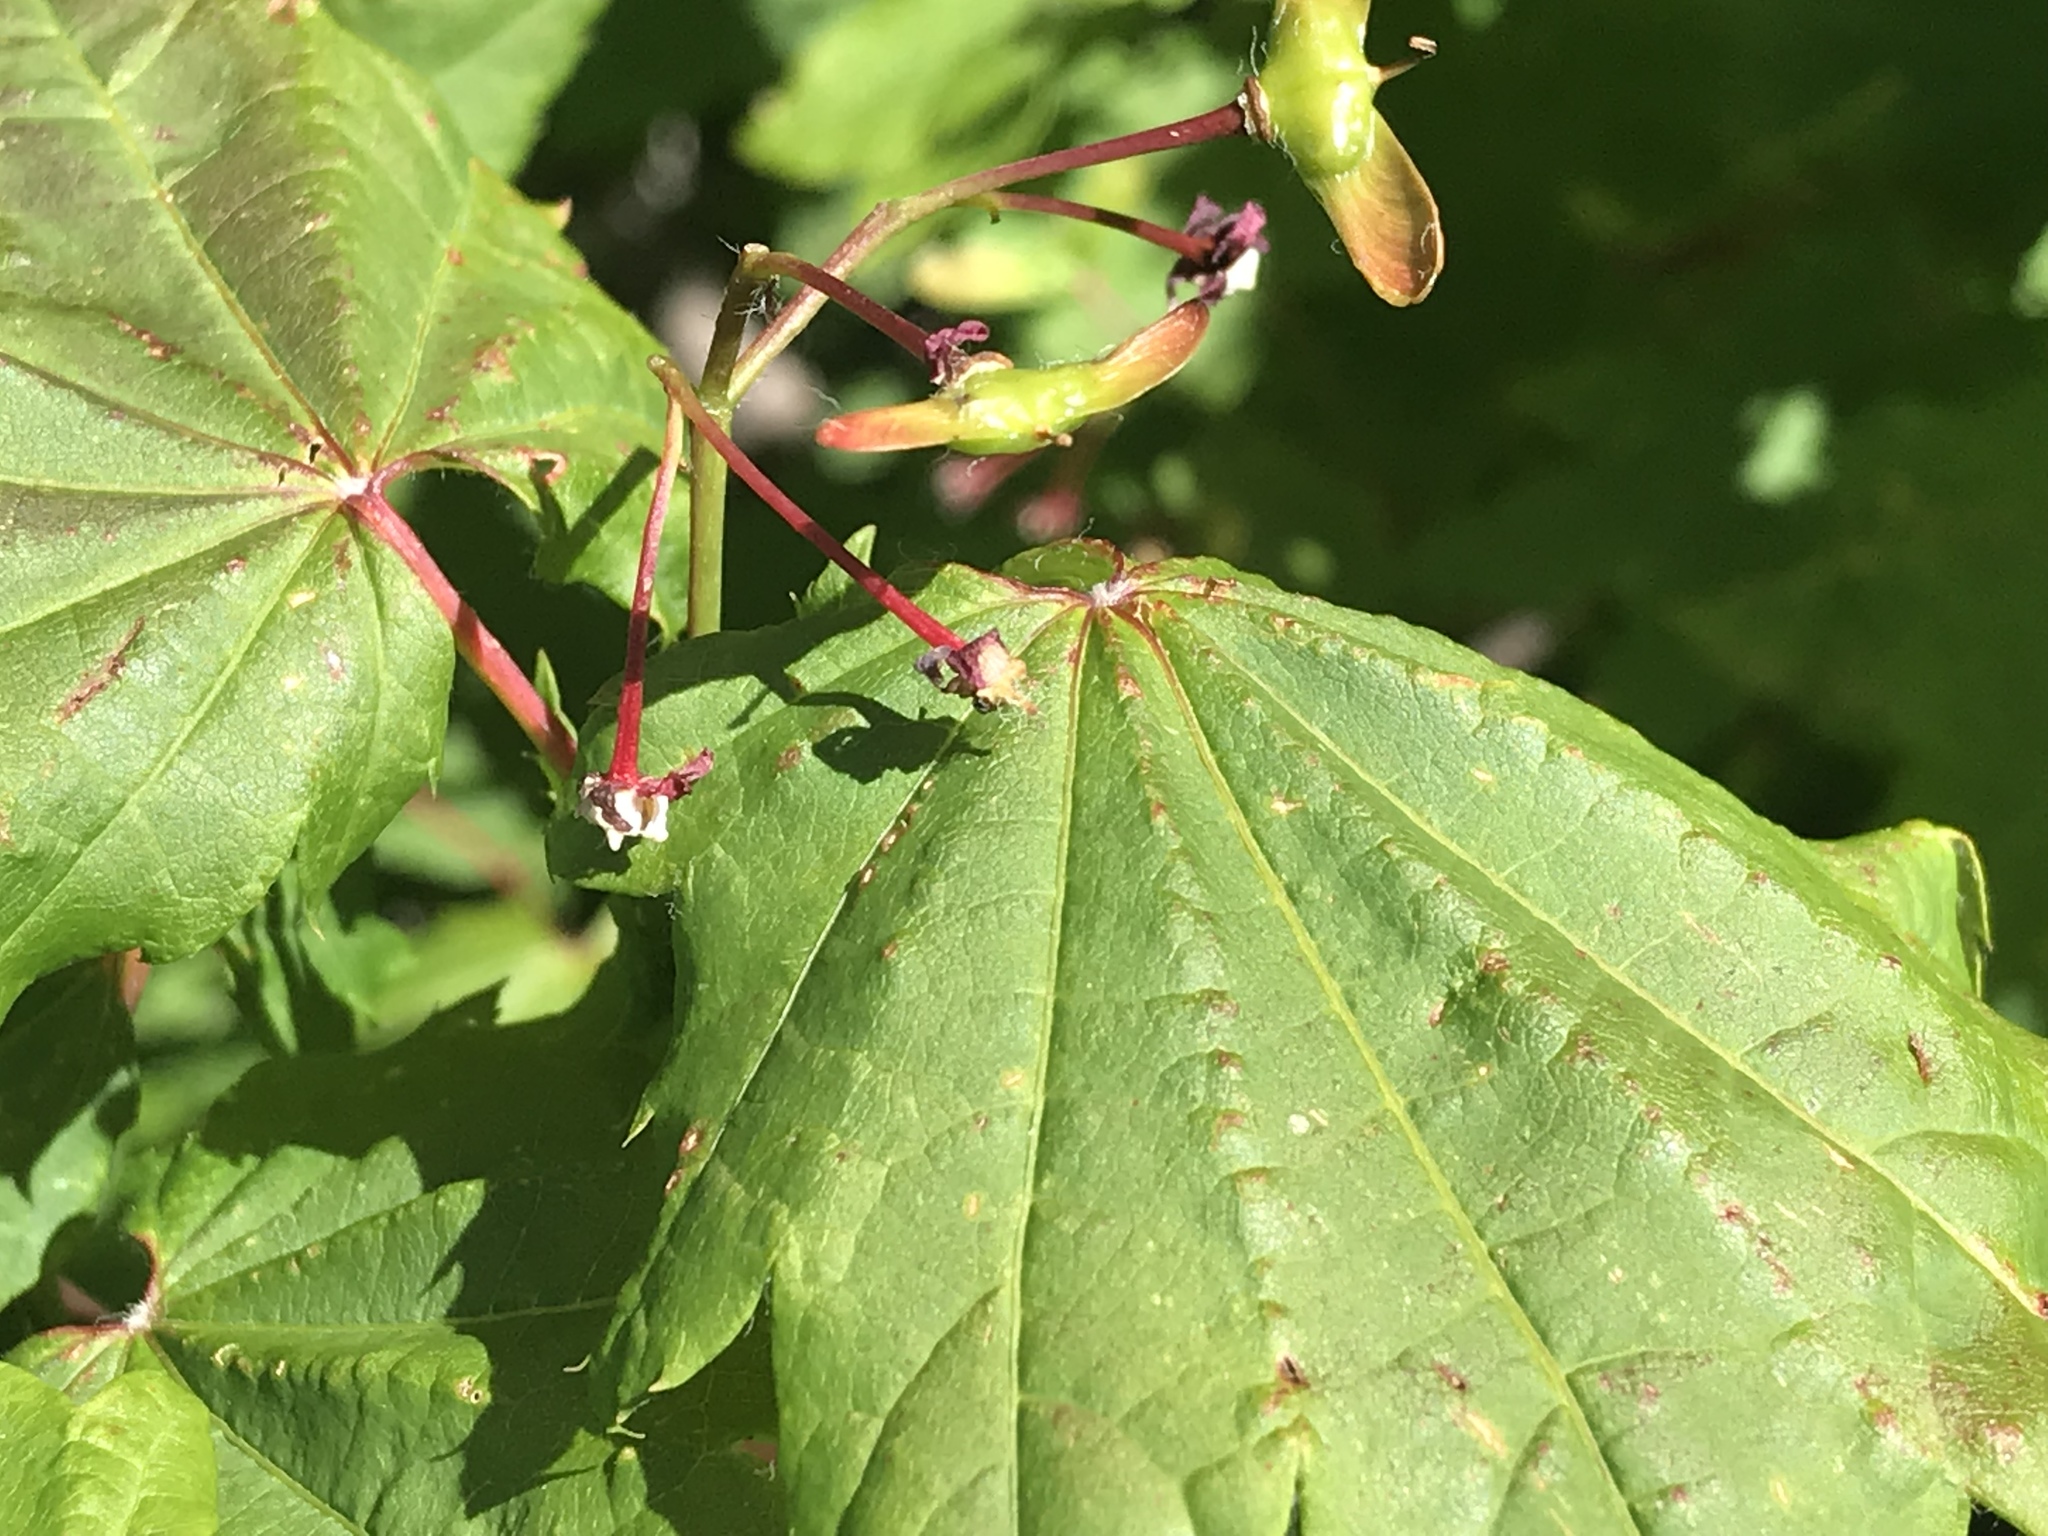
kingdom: Plantae
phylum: Tracheophyta
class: Magnoliopsida
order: Sapindales
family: Sapindaceae
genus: Acer
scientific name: Acer circinatum
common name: Vine maple
